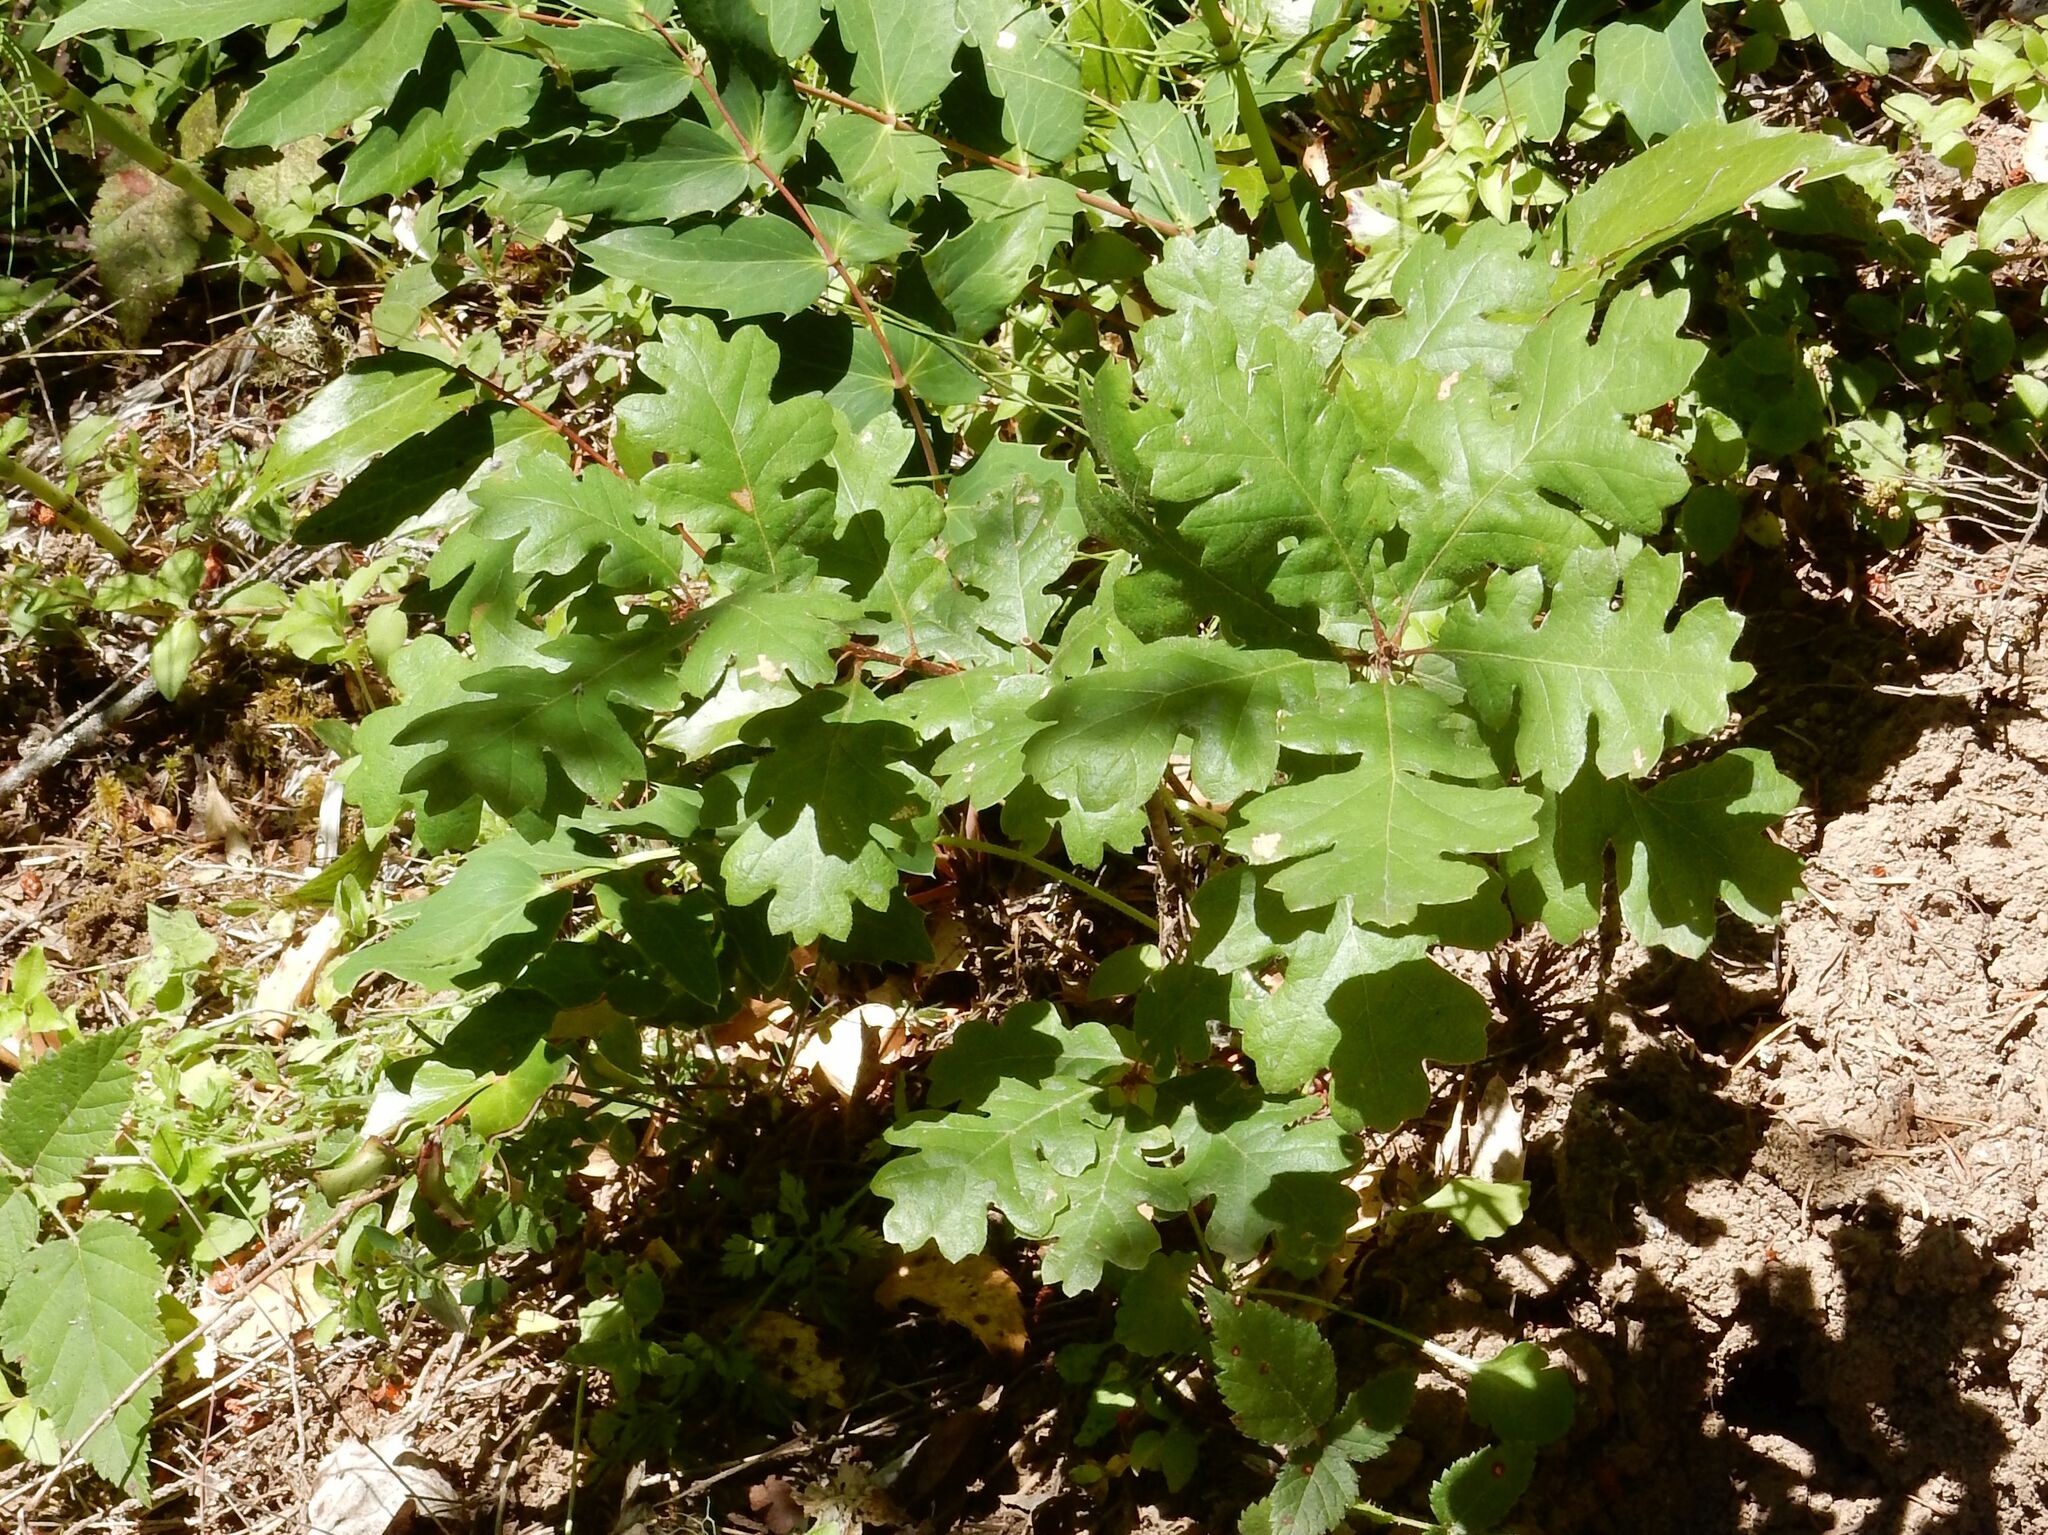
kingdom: Plantae
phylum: Tracheophyta
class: Magnoliopsida
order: Fagales
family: Fagaceae
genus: Quercus
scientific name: Quercus garryana
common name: Garry oak
